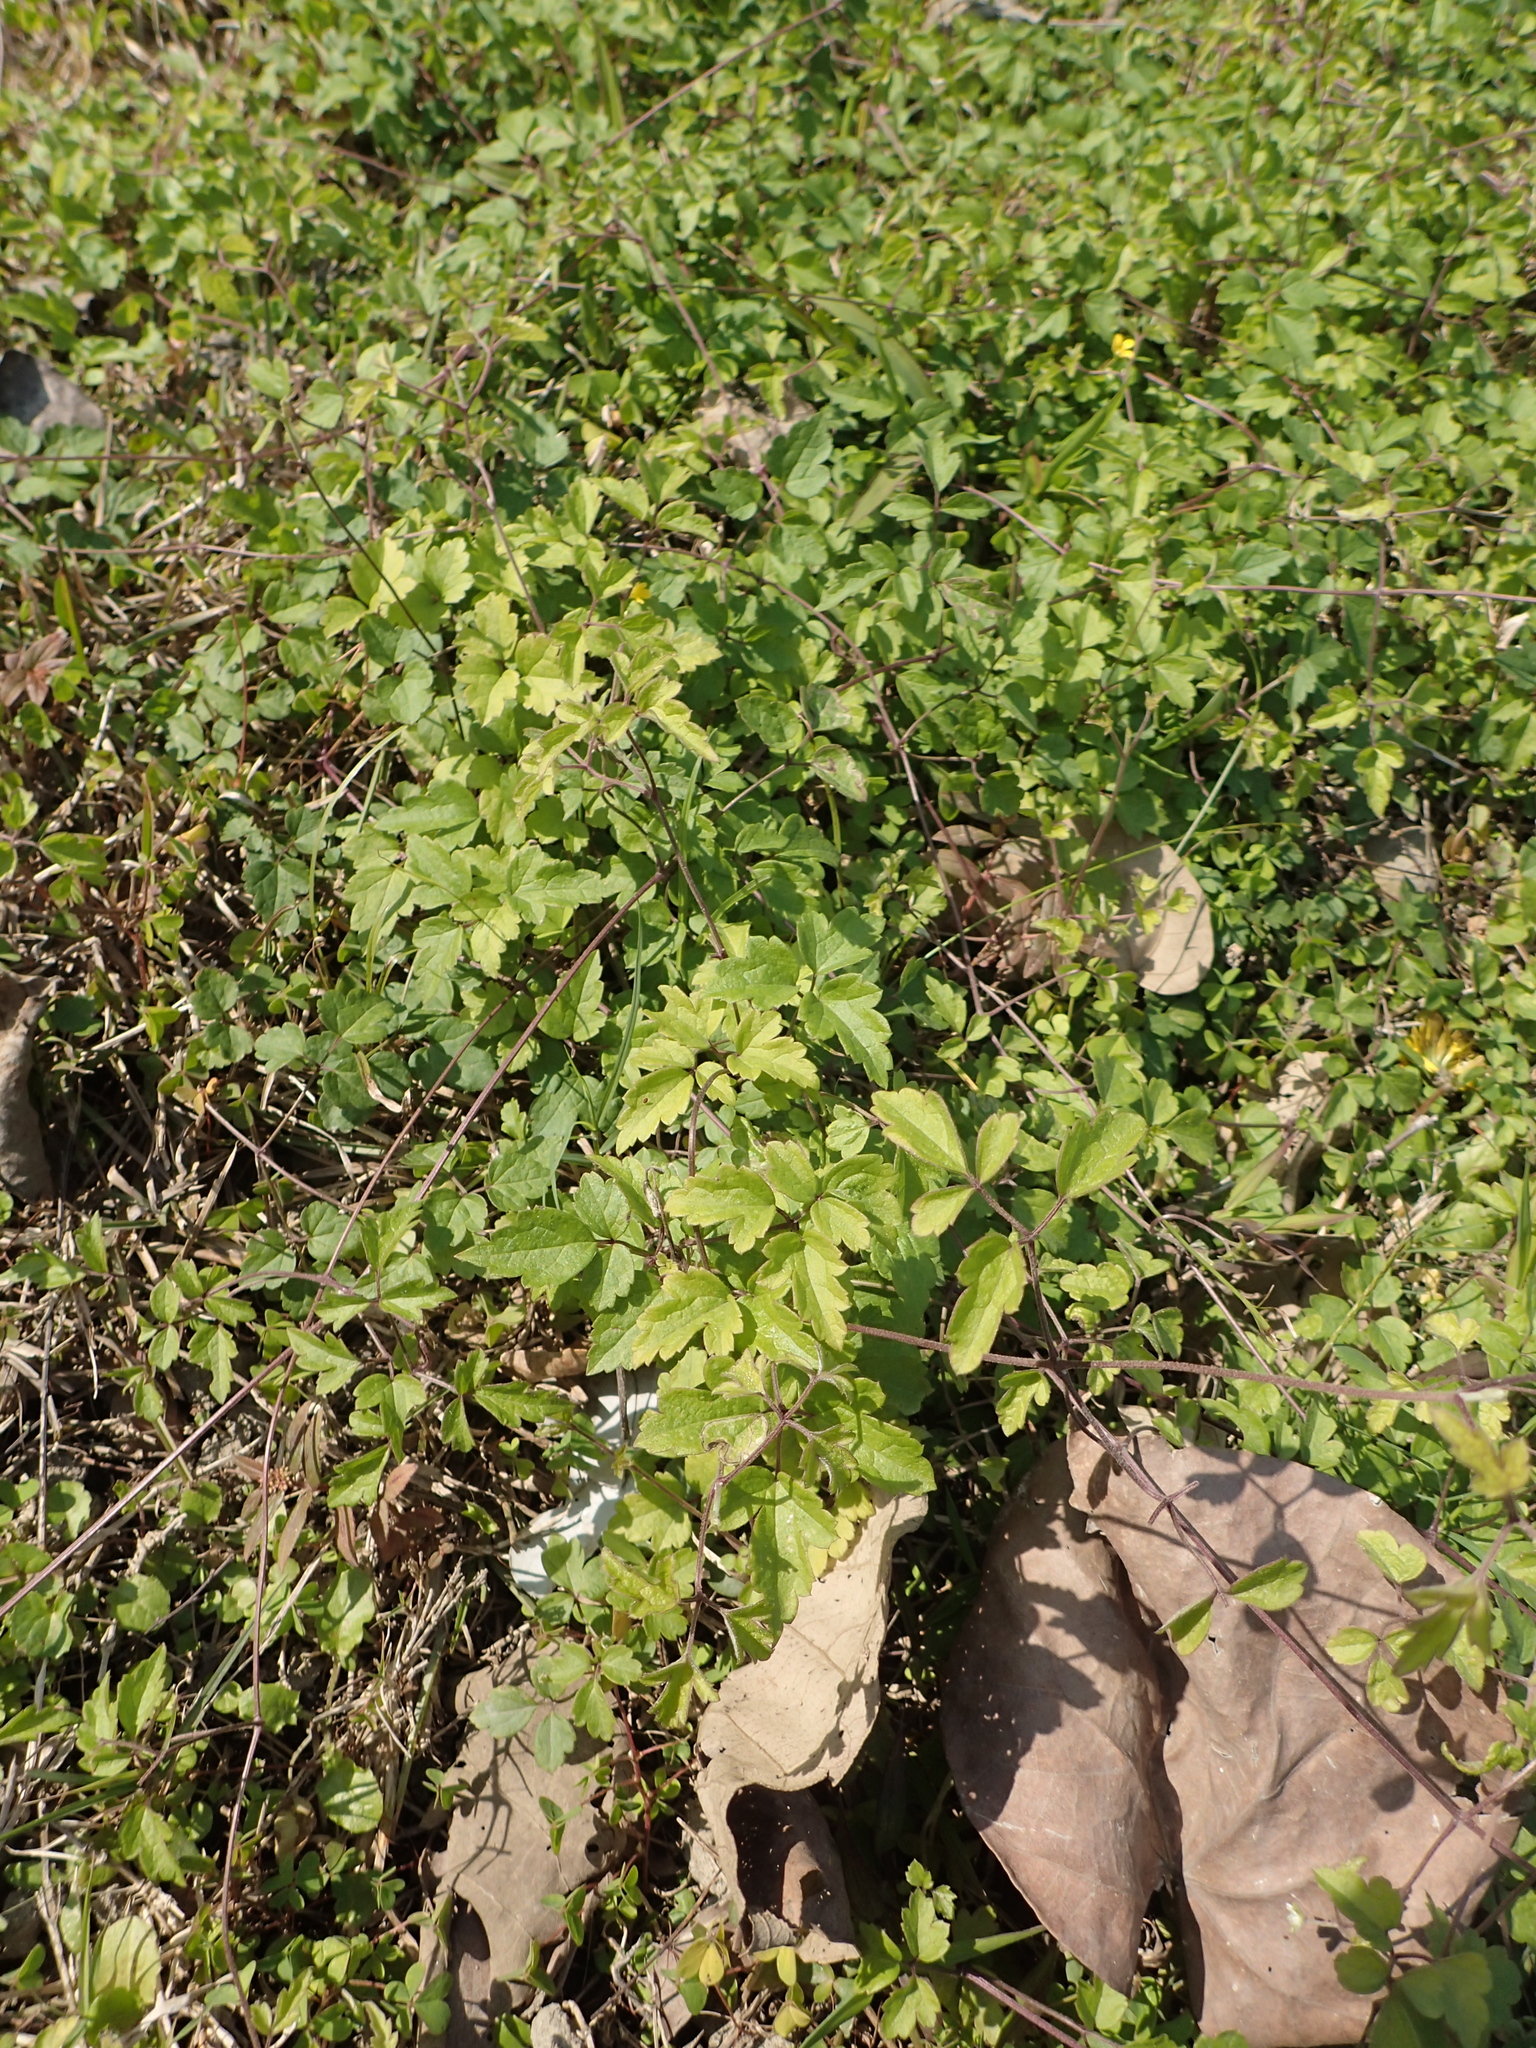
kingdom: Plantae
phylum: Tracheophyta
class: Magnoliopsida
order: Ranunculales
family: Ranunculaceae
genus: Clematis
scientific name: Clematis grata
